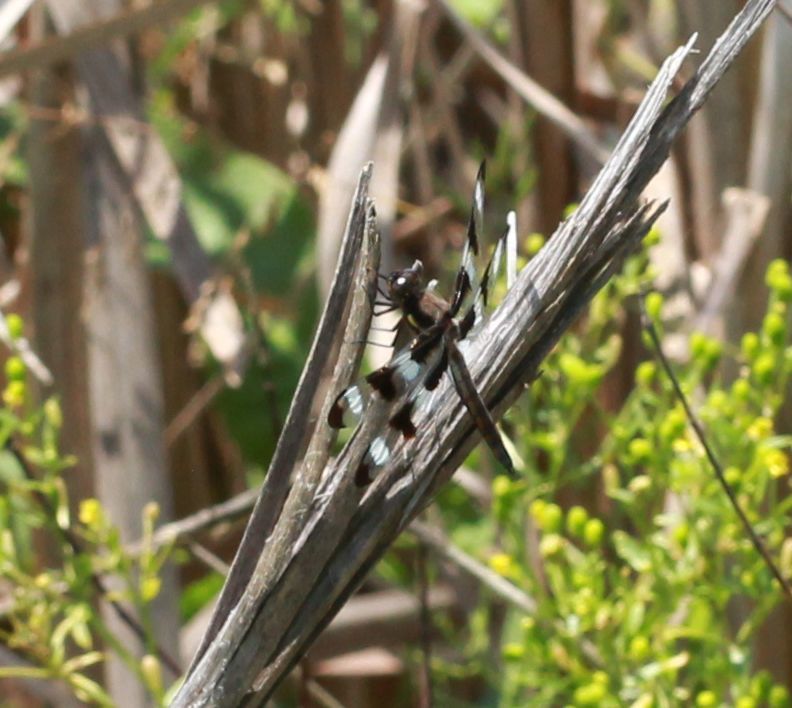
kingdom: Animalia
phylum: Arthropoda
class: Insecta
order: Odonata
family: Libellulidae
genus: Libellula
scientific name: Libellula pulchella
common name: Twelve-spotted skimmer
